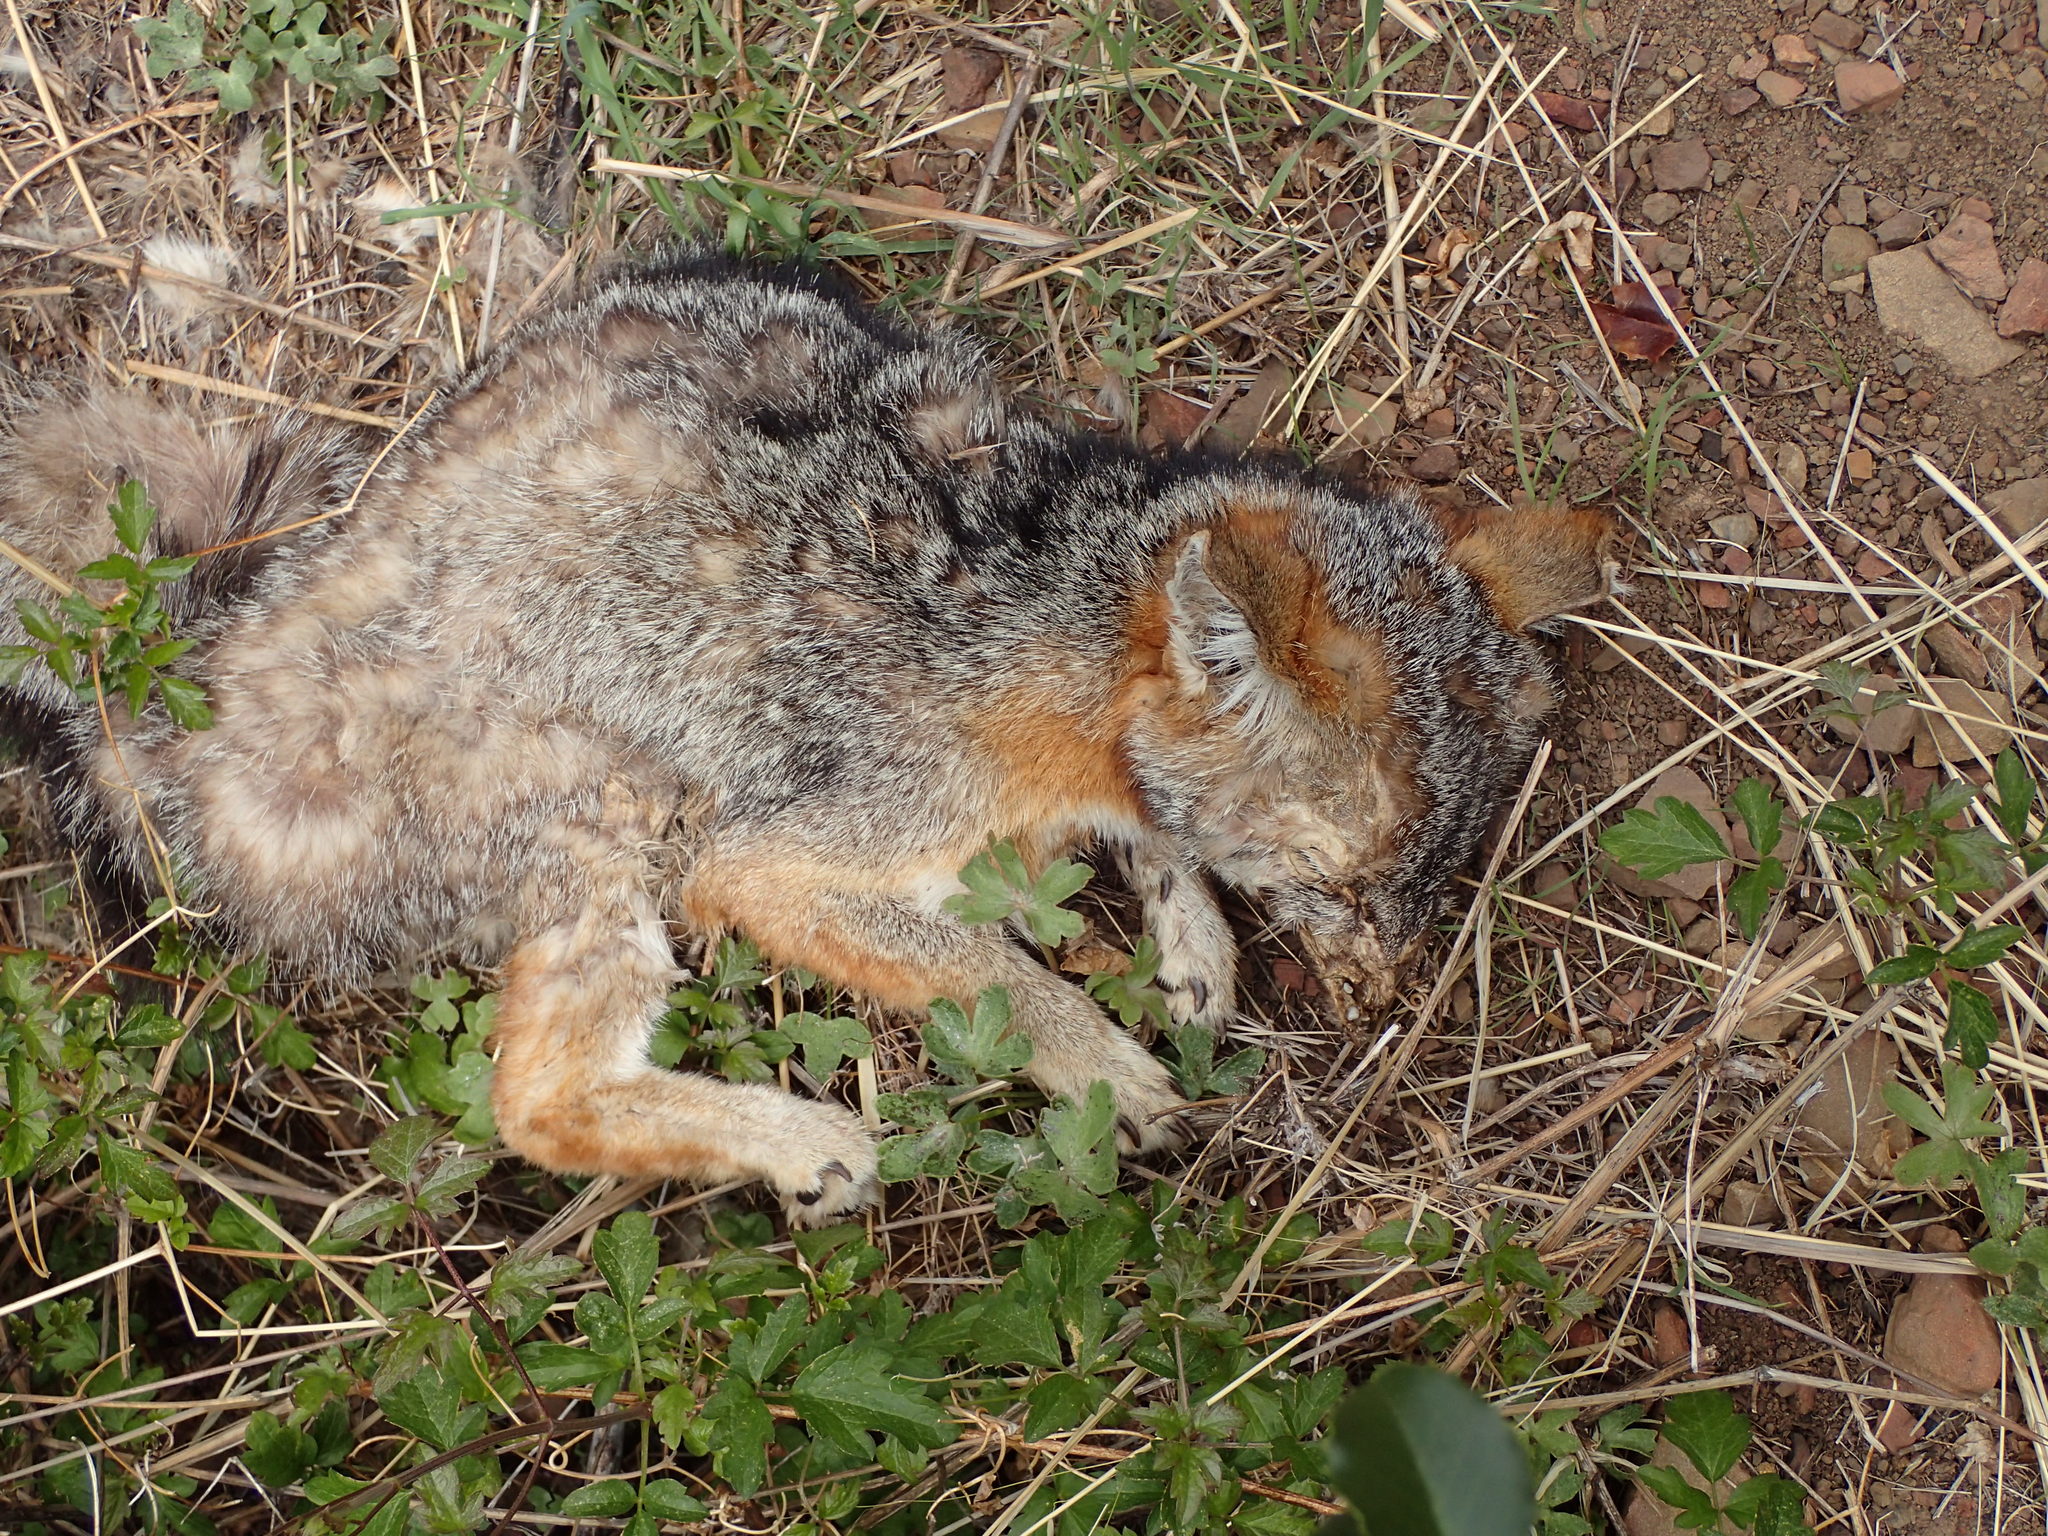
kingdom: Animalia
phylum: Chordata
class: Mammalia
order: Carnivora
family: Canidae
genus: Urocyon
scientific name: Urocyon cinereoargenteus
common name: Gray fox
